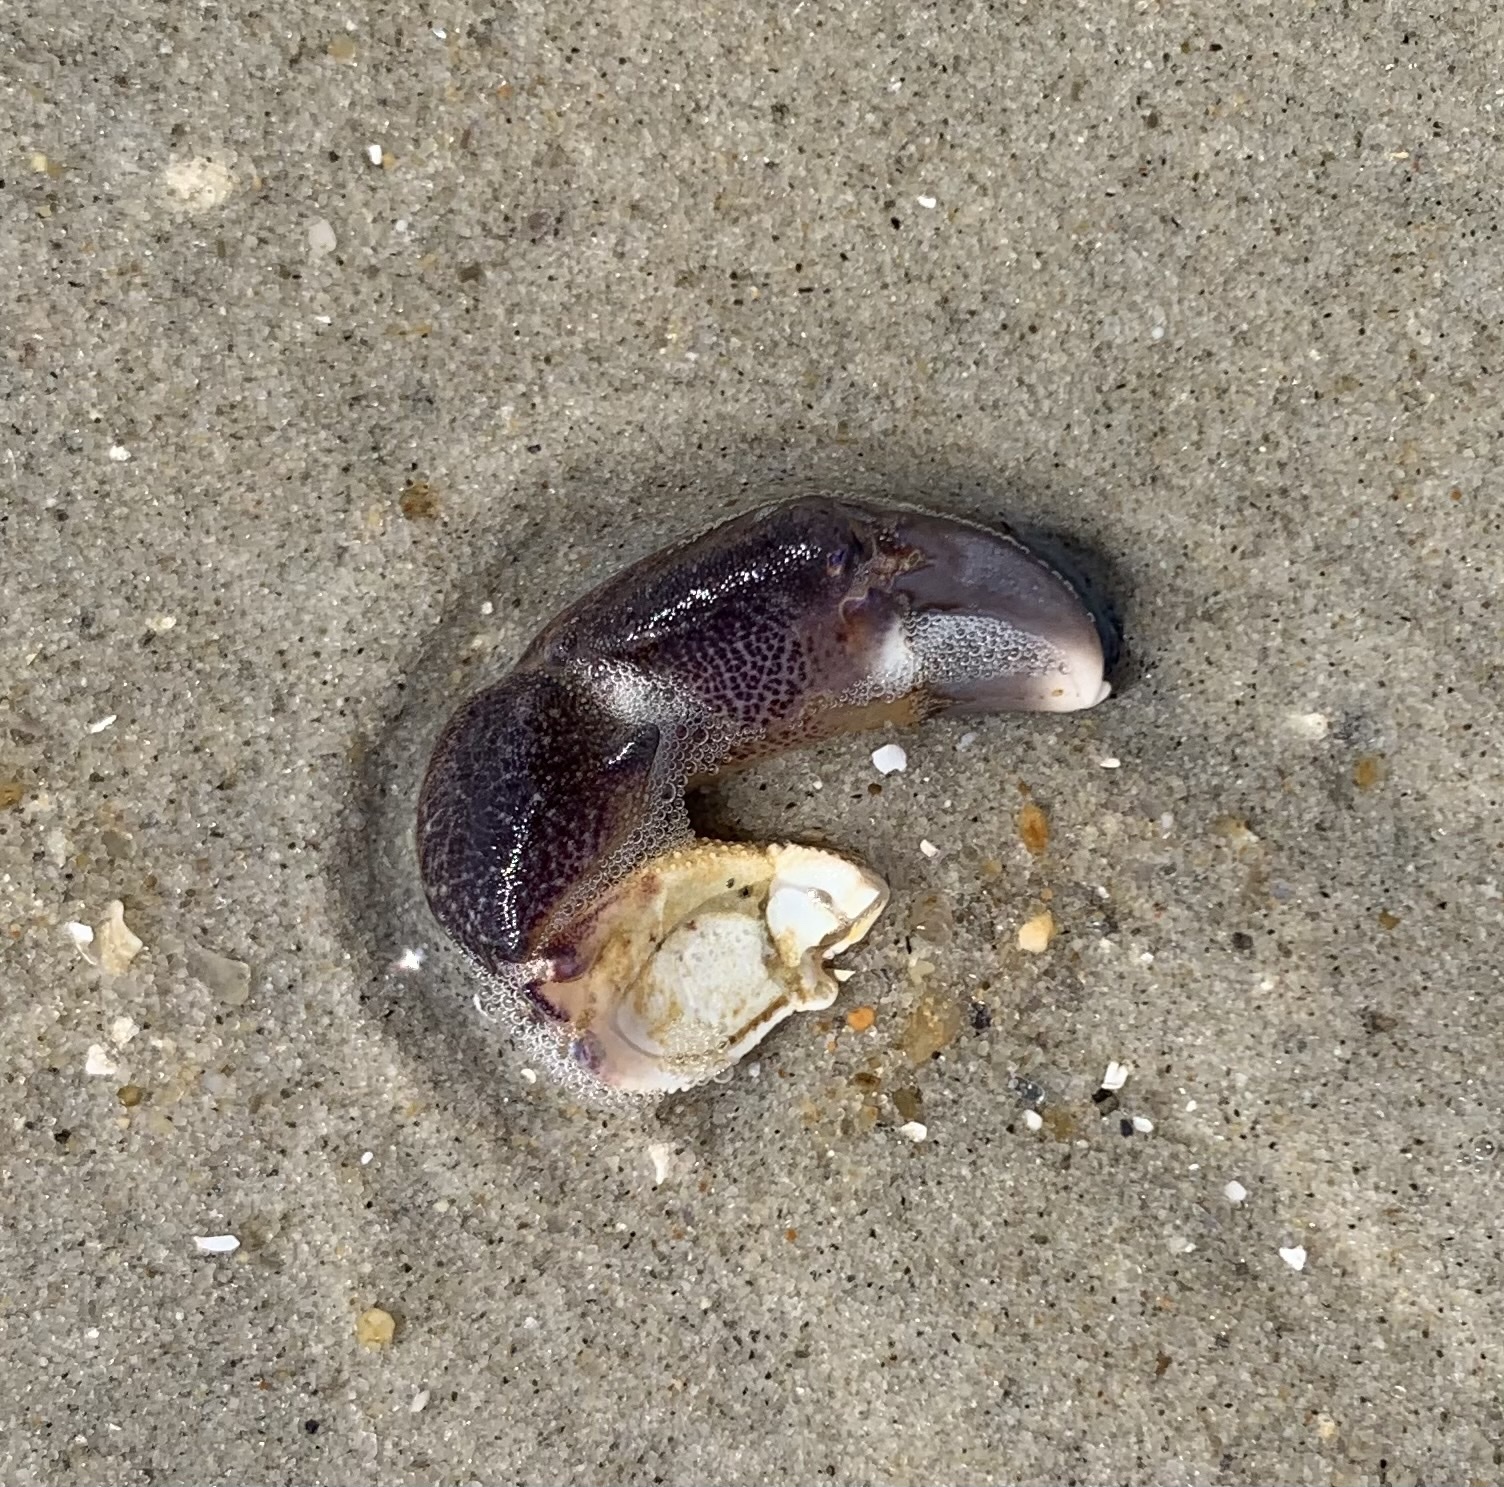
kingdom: Animalia
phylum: Arthropoda
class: Malacostraca
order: Decapoda
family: Panopeidae
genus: Panopeus
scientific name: Panopeus herbstii
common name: Atlantic mud crab
